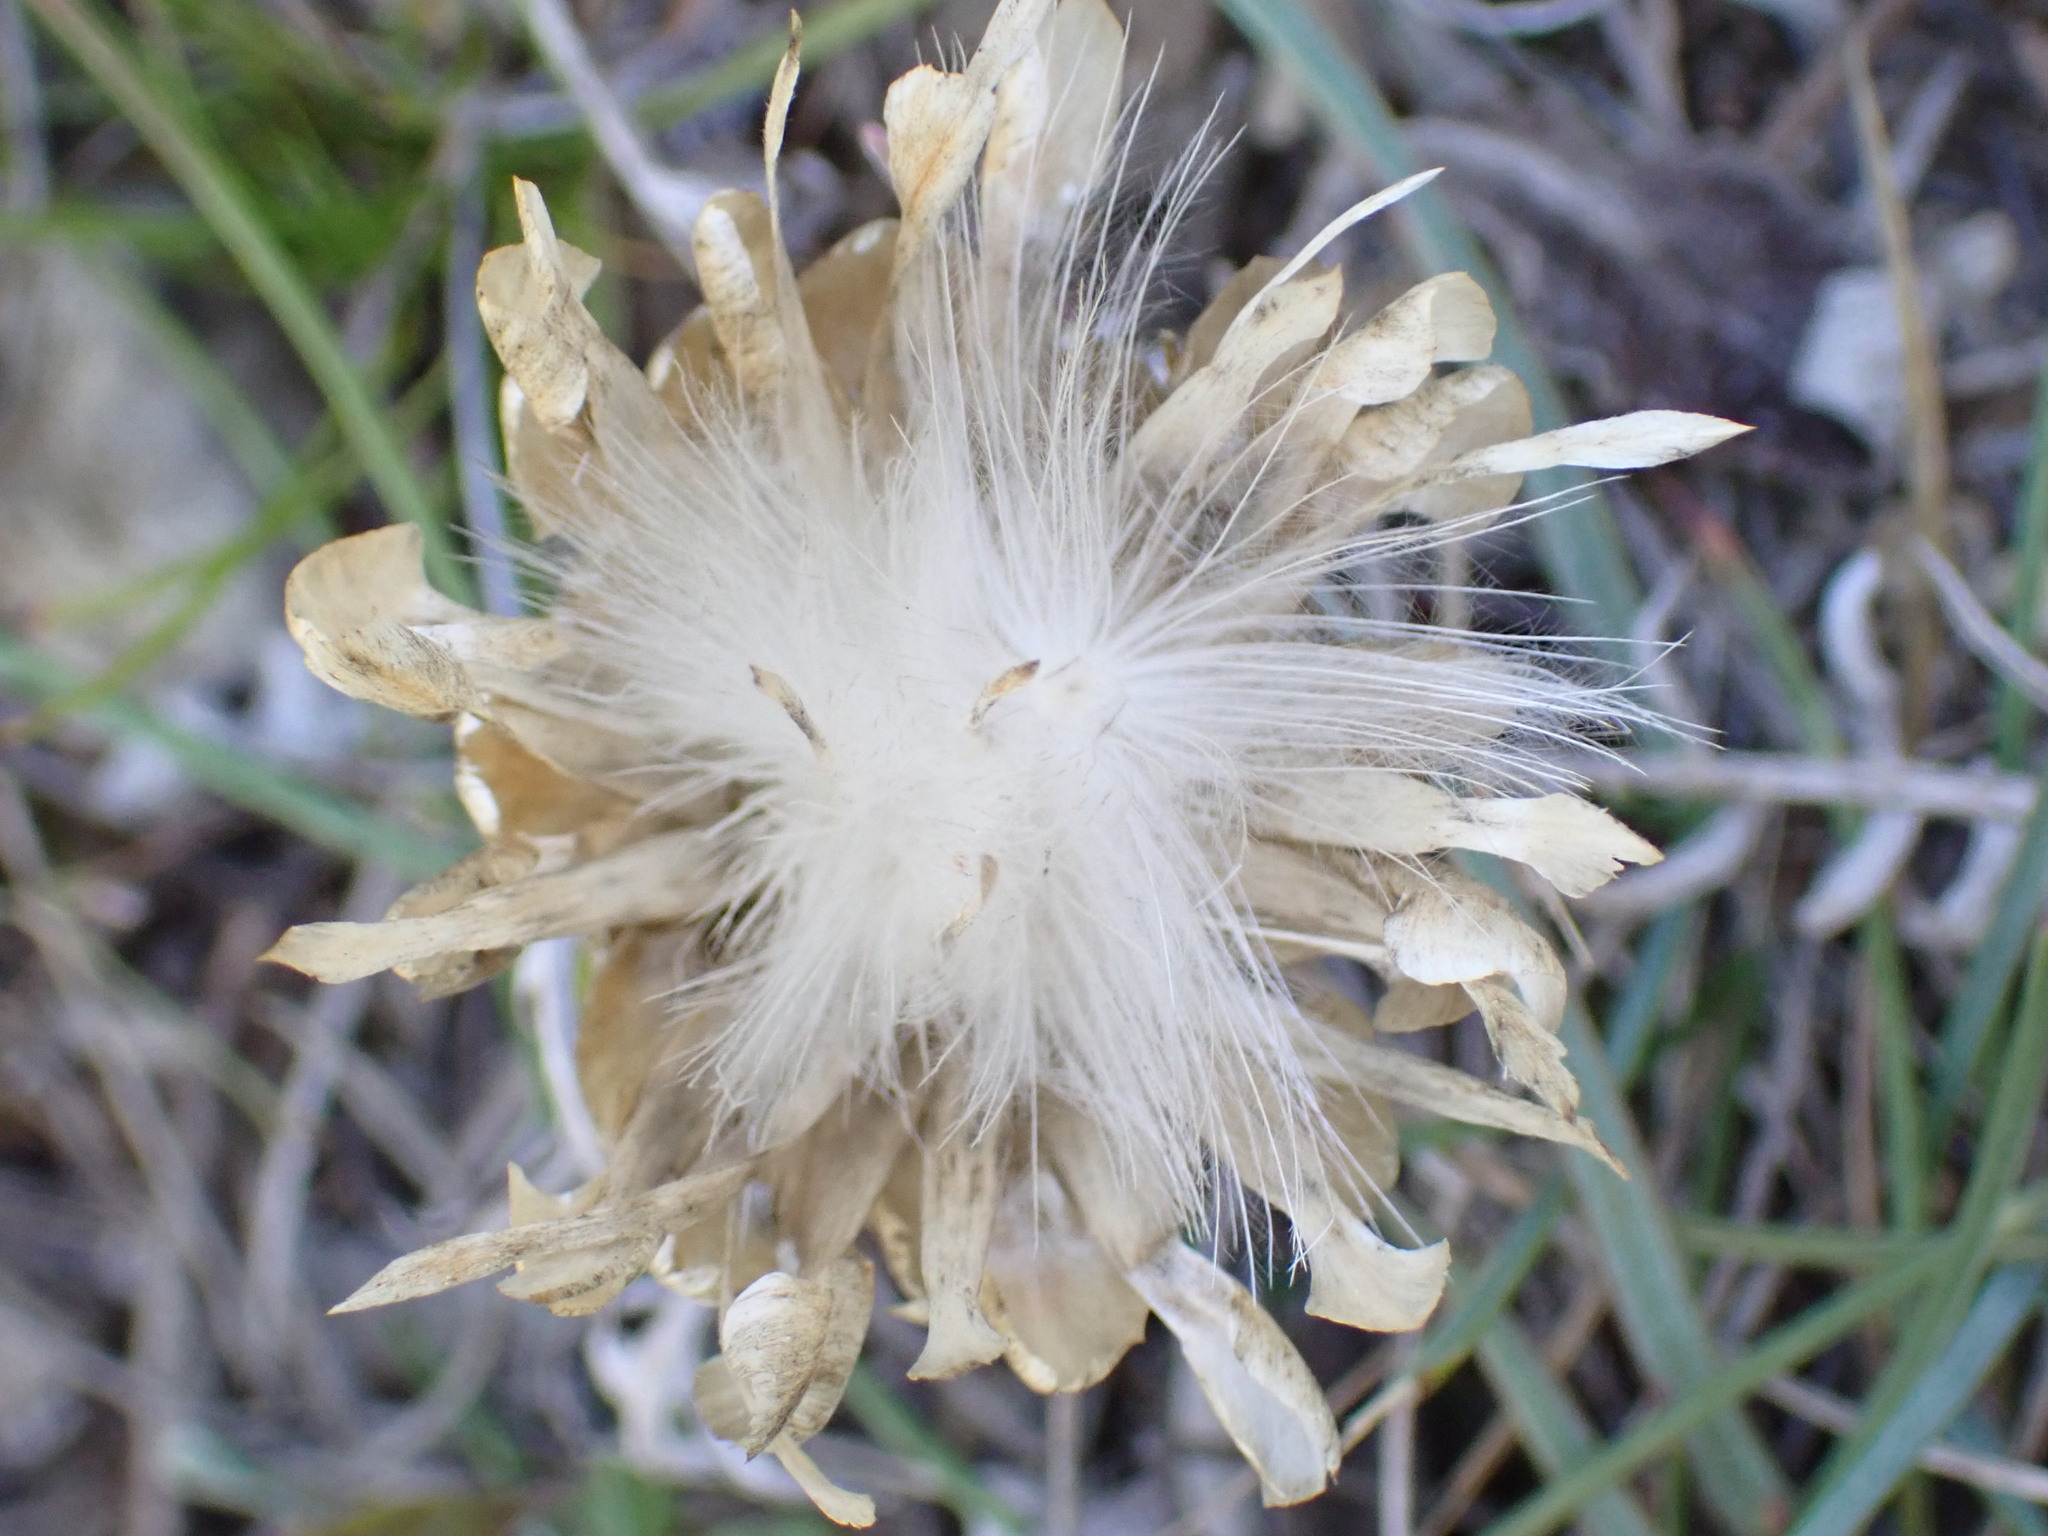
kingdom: Plantae
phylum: Tracheophyta
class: Magnoliopsida
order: Asterales
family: Asteraceae
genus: Leuzea
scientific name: Leuzea conifera
